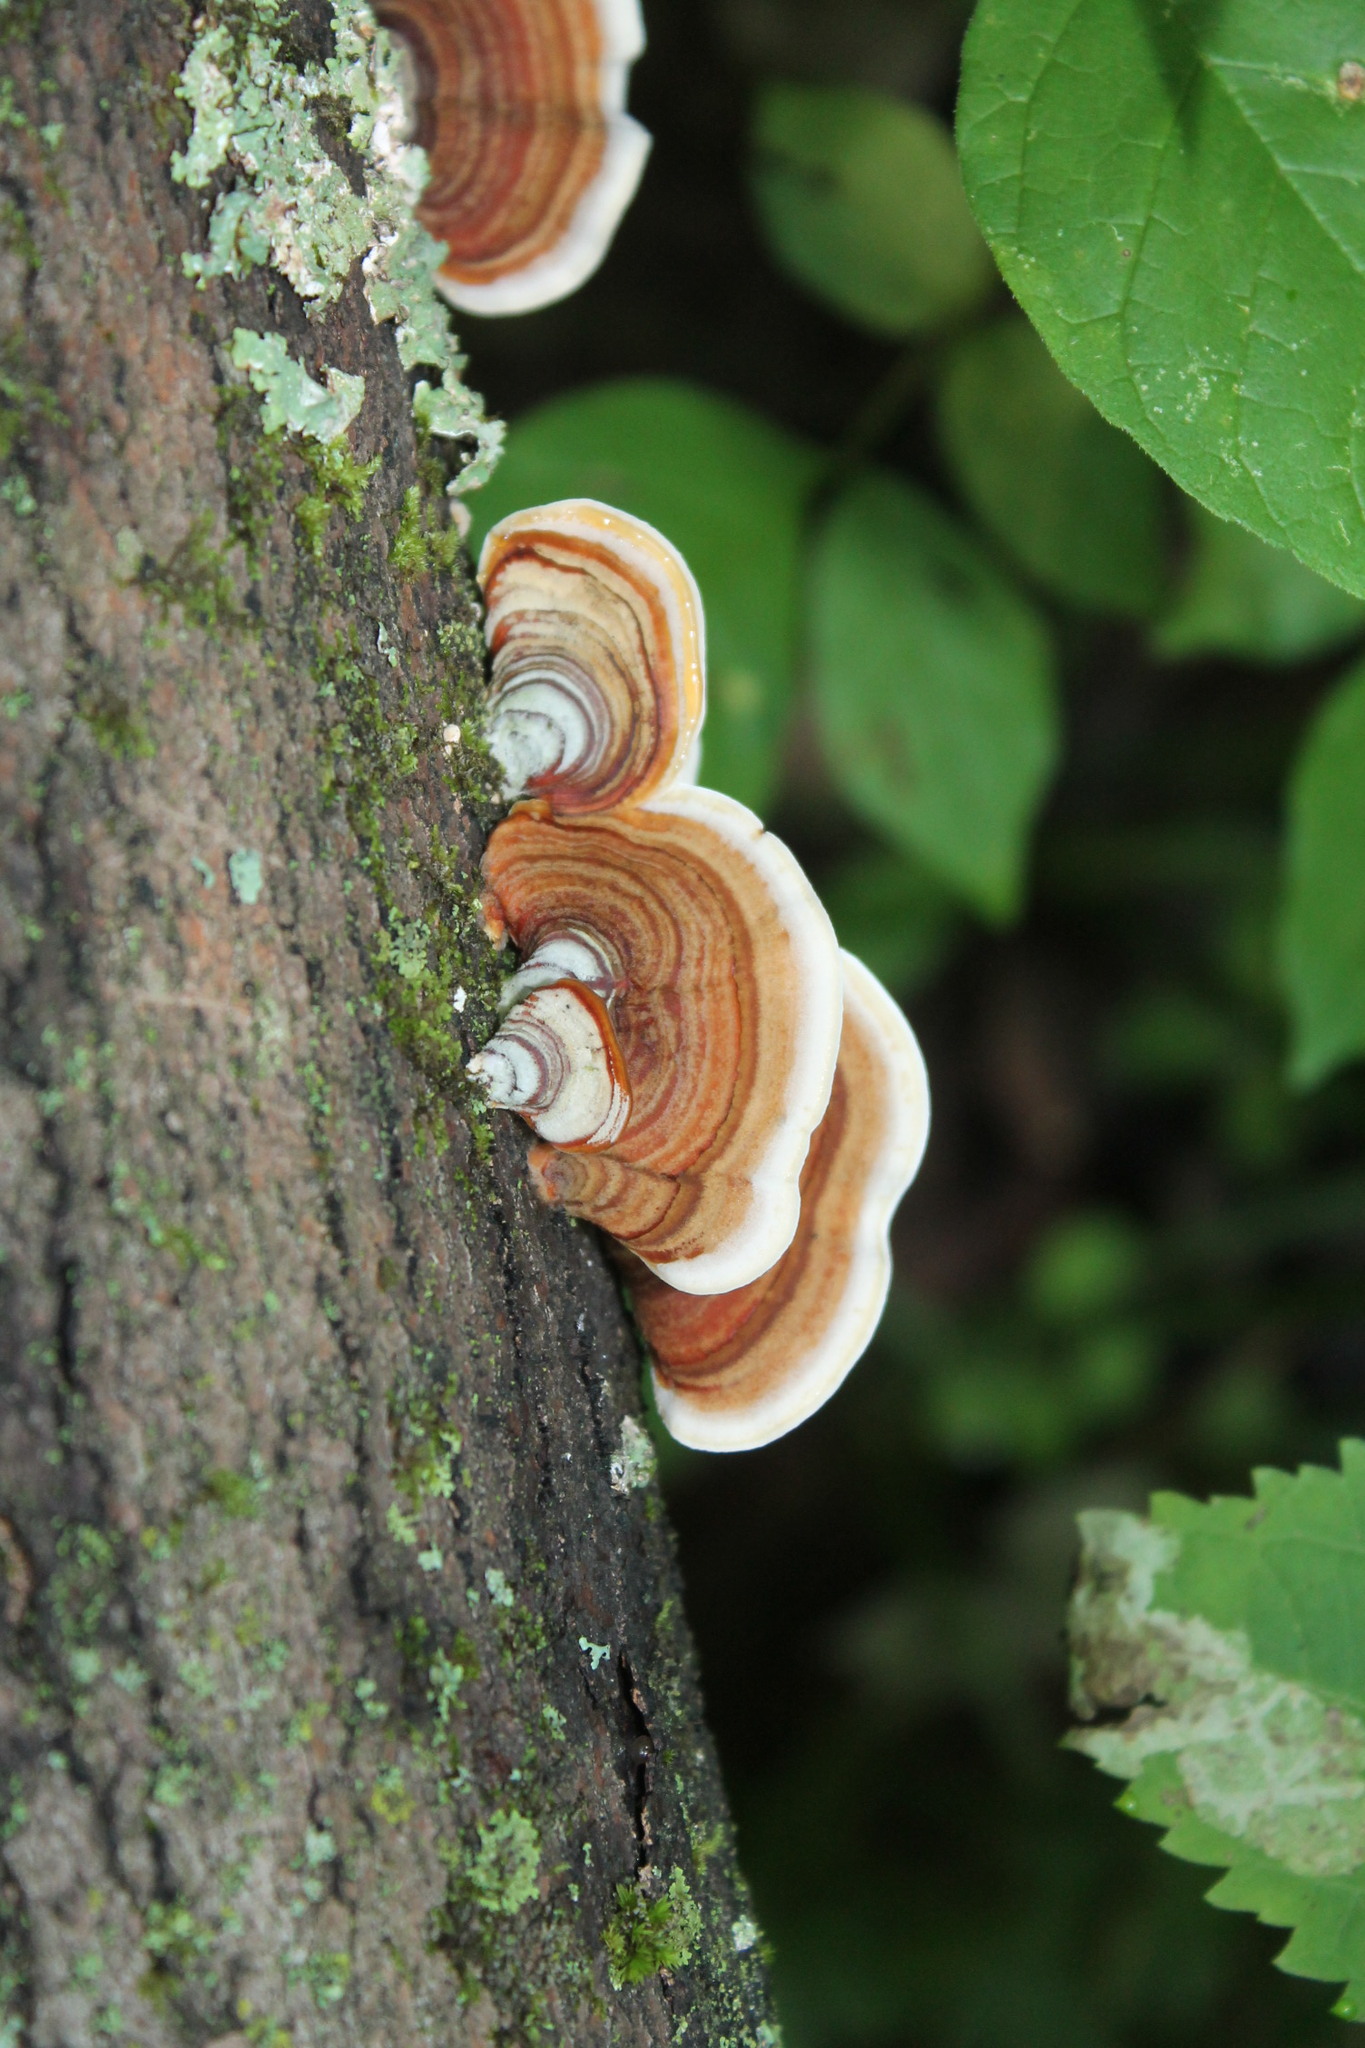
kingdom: Fungi
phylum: Basidiomycota
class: Agaricomycetes
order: Russulales
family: Stereaceae
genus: Stereum
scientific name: Stereum lobatum
